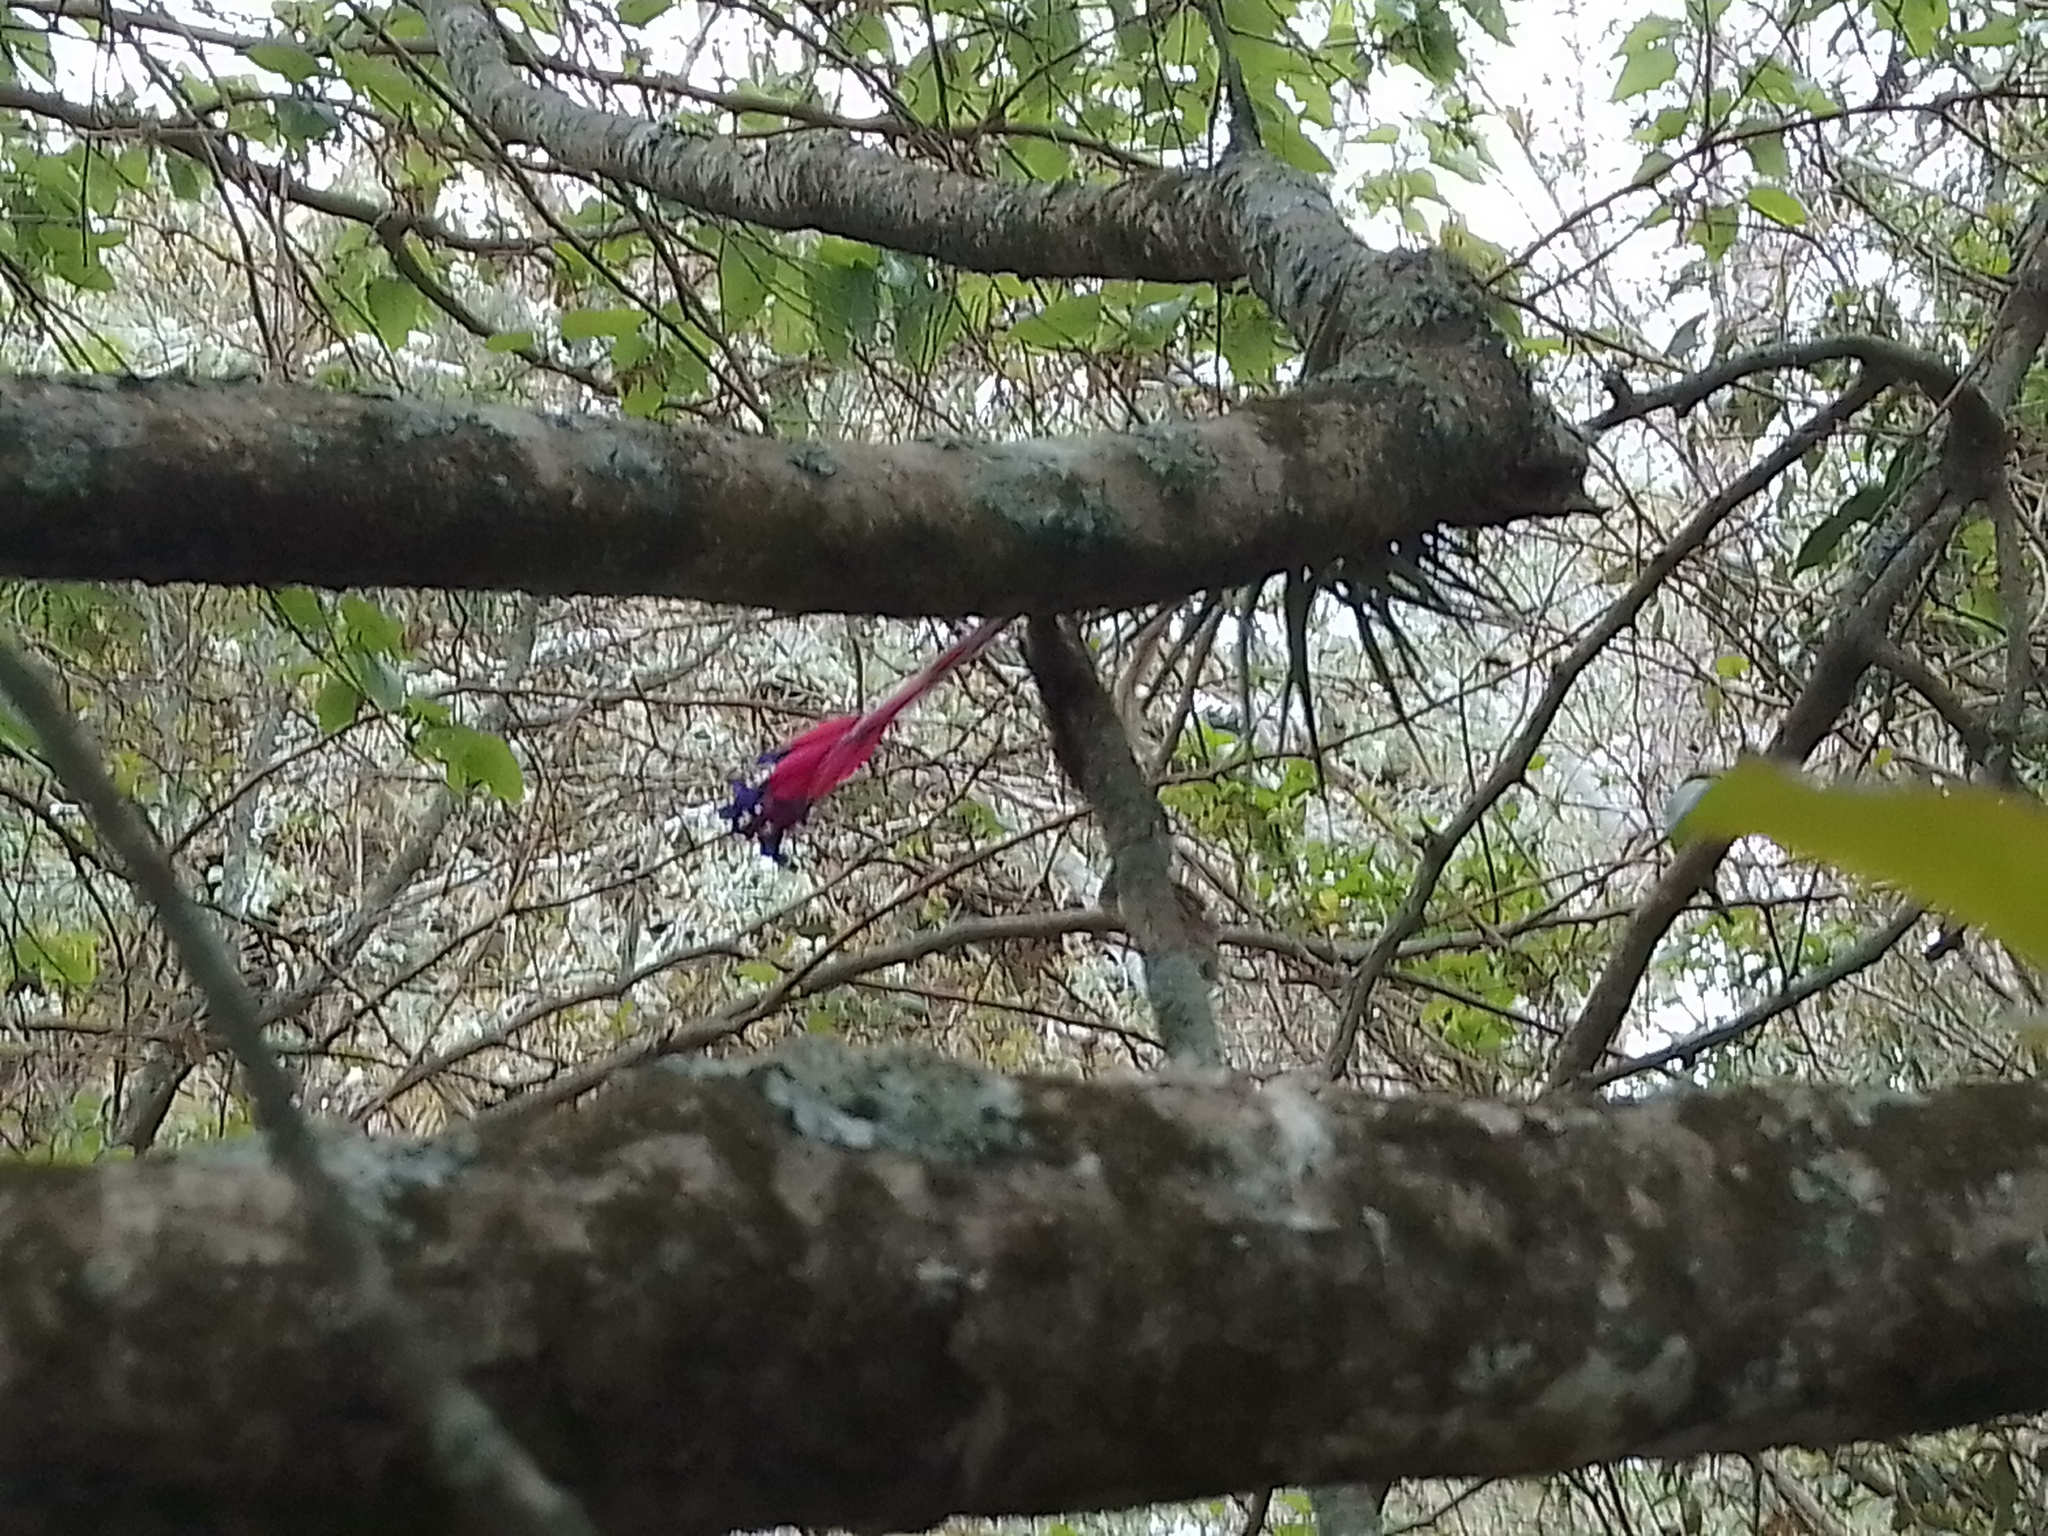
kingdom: Plantae
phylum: Tracheophyta
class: Liliopsida
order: Poales
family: Bromeliaceae
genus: Tillandsia
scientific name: Tillandsia aeranthos
